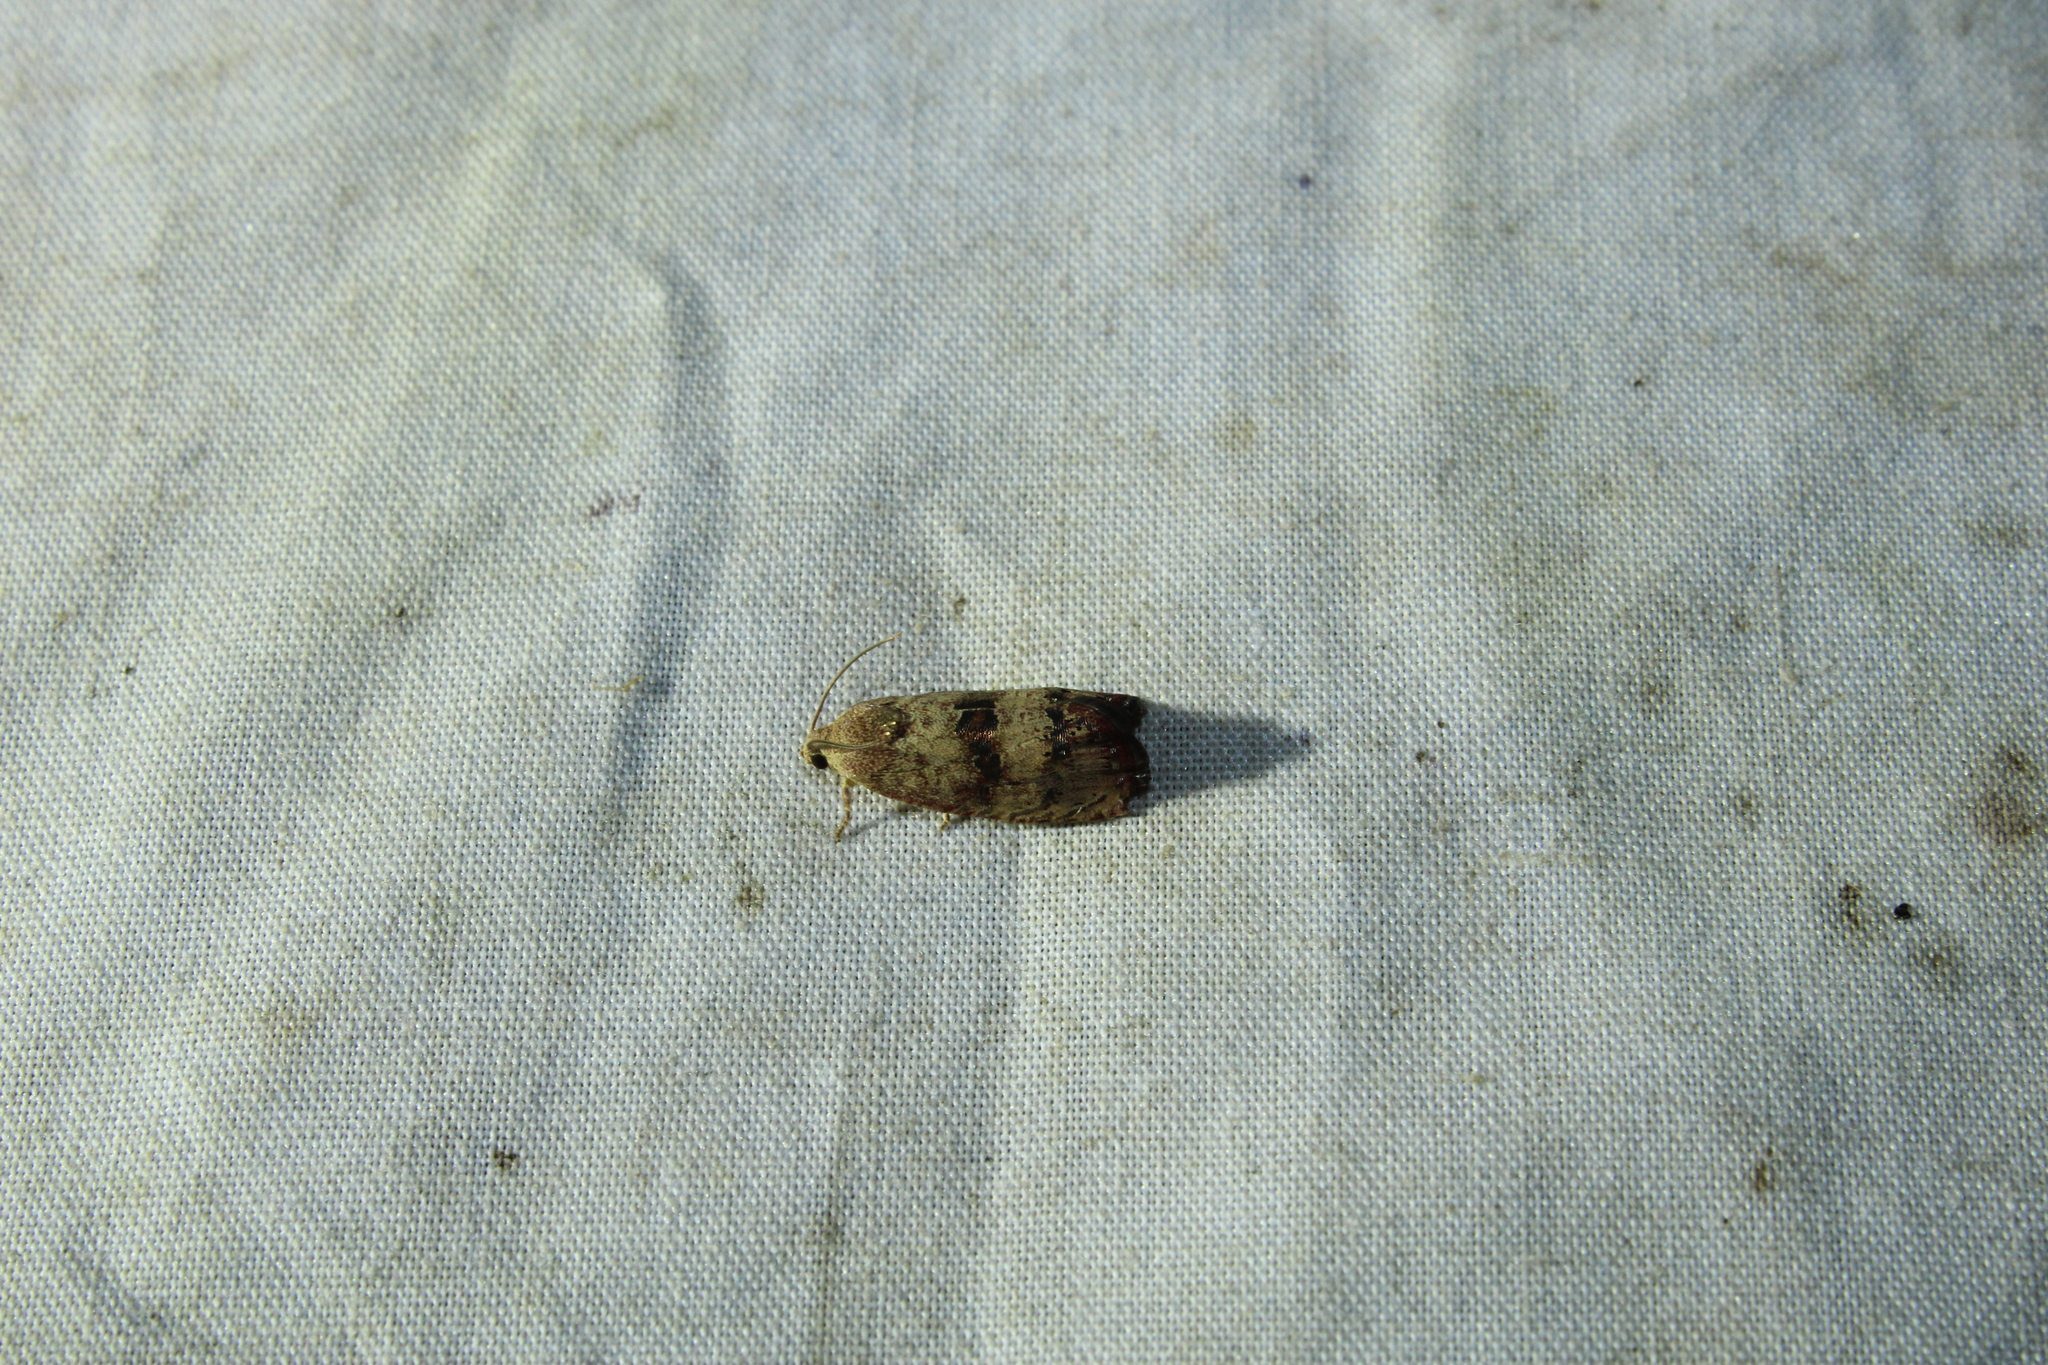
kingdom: Animalia
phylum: Arthropoda
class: Insecta
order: Lepidoptera
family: Tortricidae
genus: Cydia
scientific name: Cydia latiferreana
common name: Filbertworm moth
